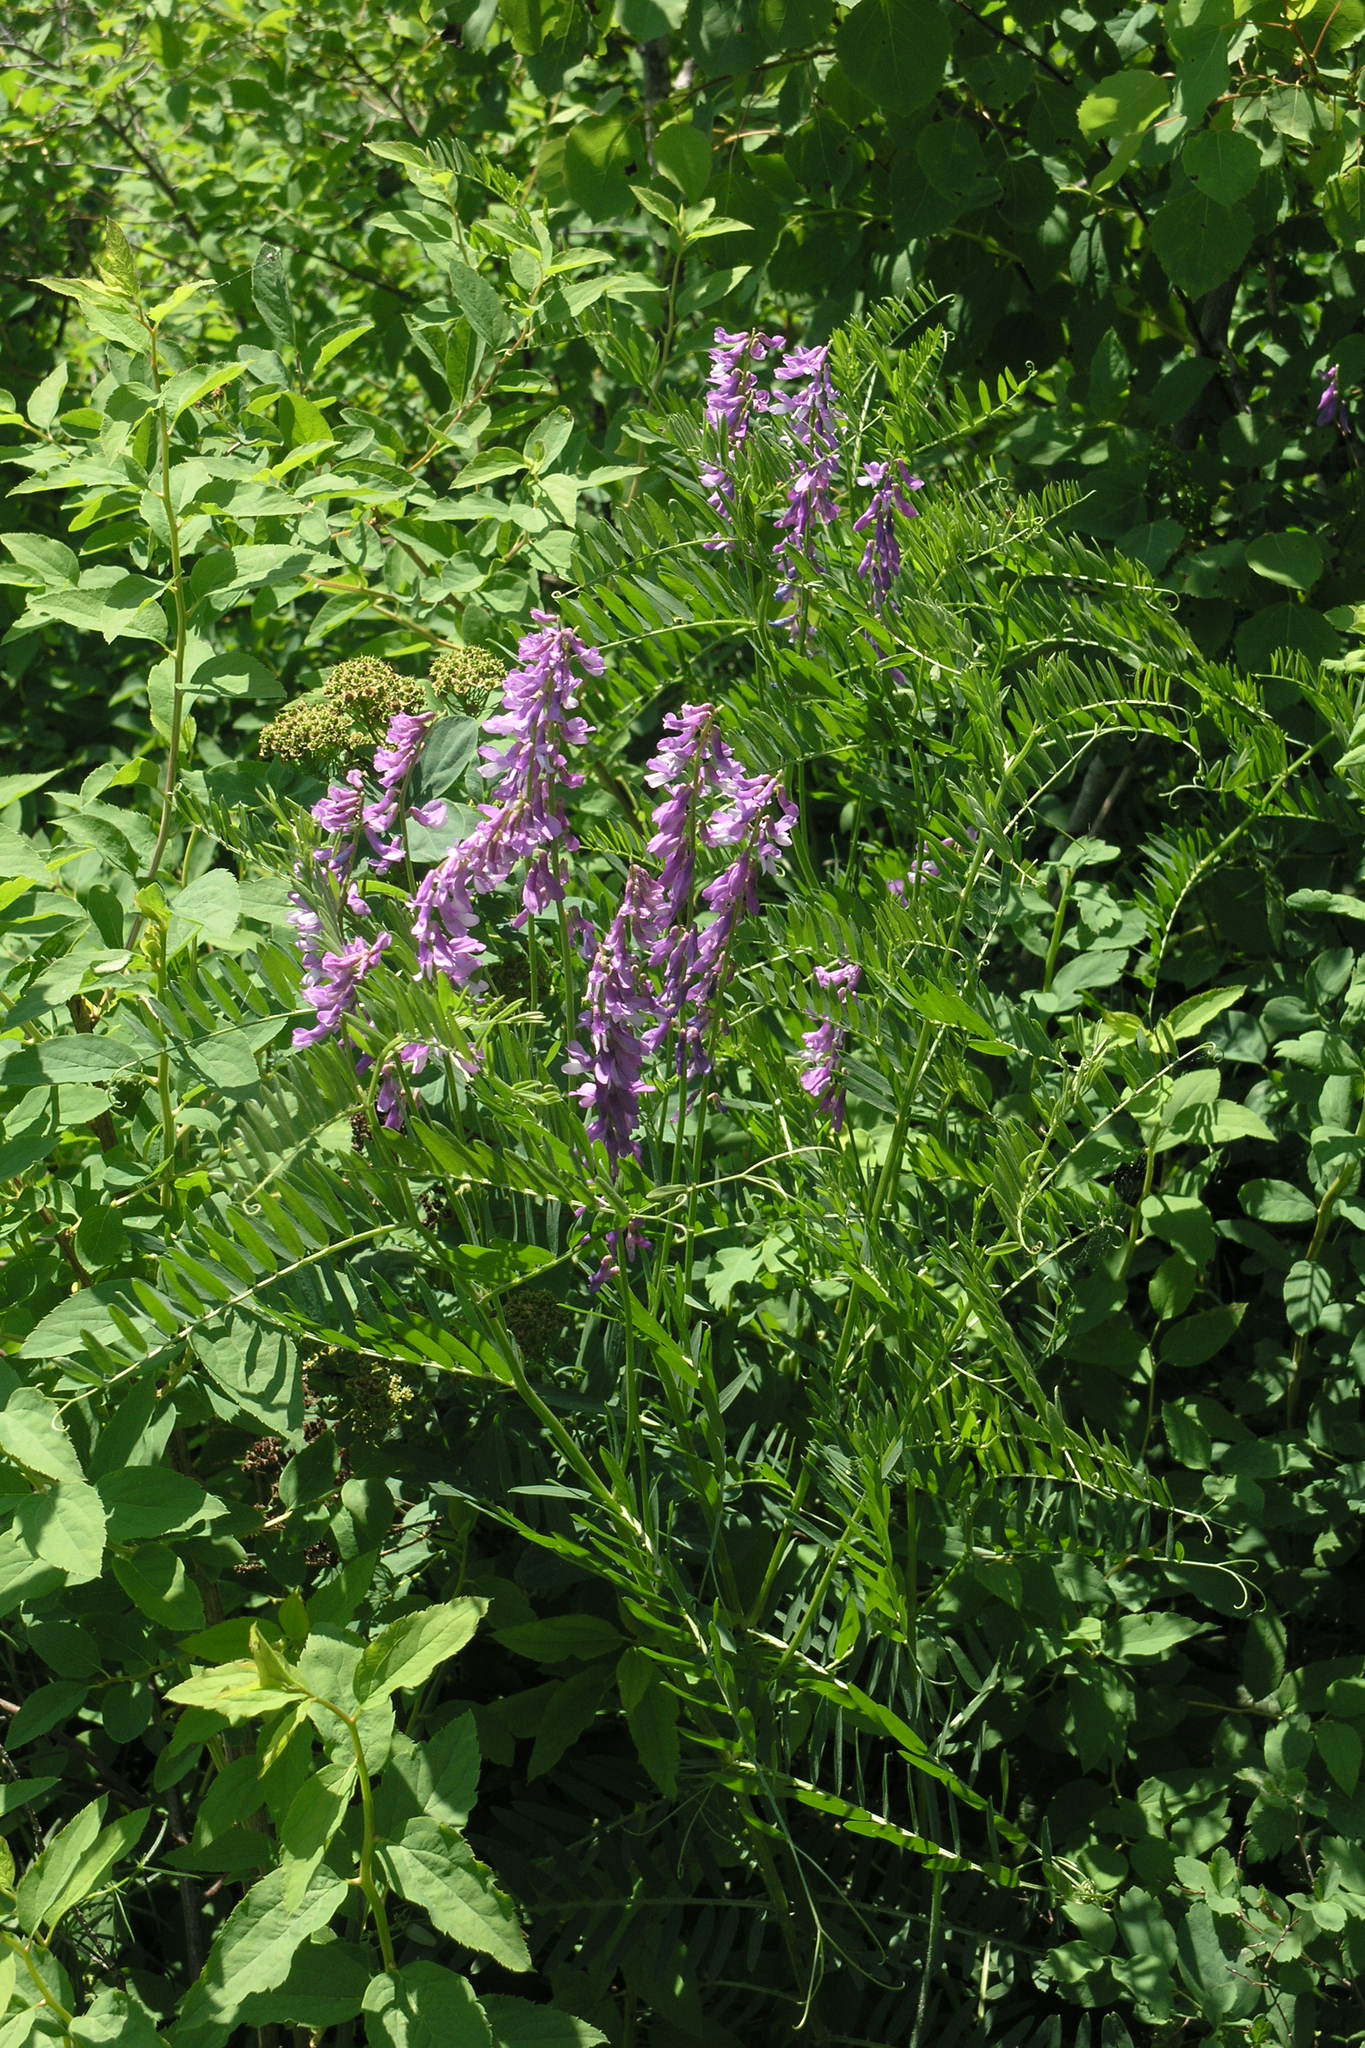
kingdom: Plantae
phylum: Tracheophyta
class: Magnoliopsida
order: Fabales
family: Fabaceae
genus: Vicia
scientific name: Vicia tenuifolia
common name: Fine-leaved vetch
